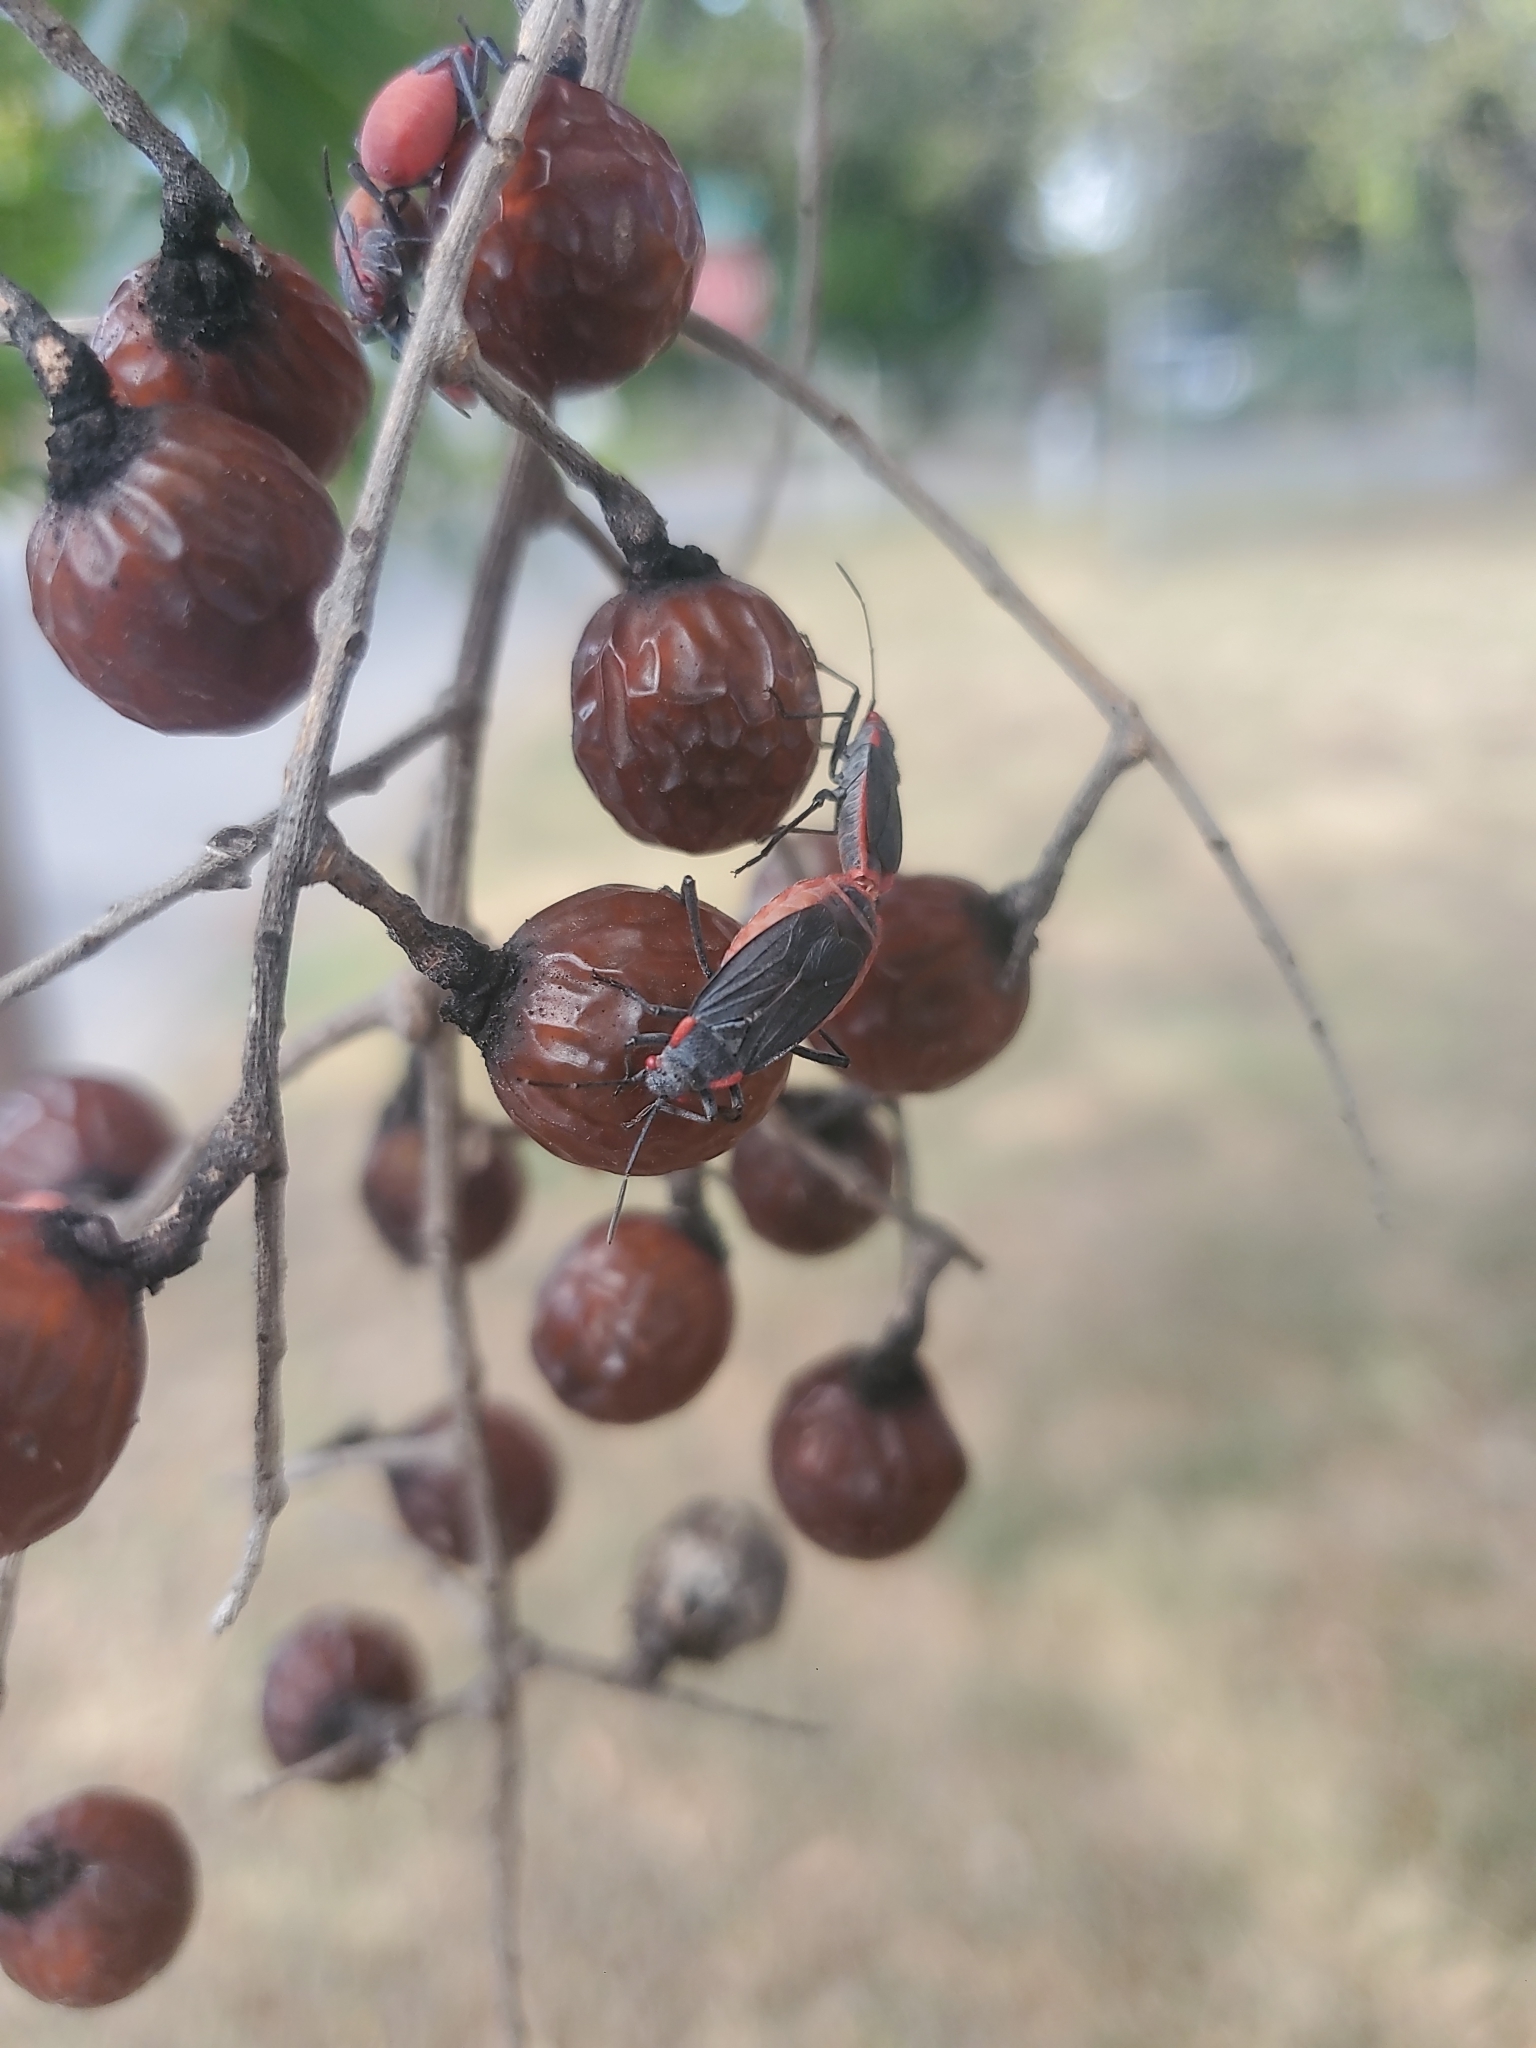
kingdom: Animalia
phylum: Arthropoda
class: Insecta
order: Hemiptera
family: Rhopalidae
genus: Jadera
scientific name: Jadera haematoloma
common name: Red-shouldered bug
